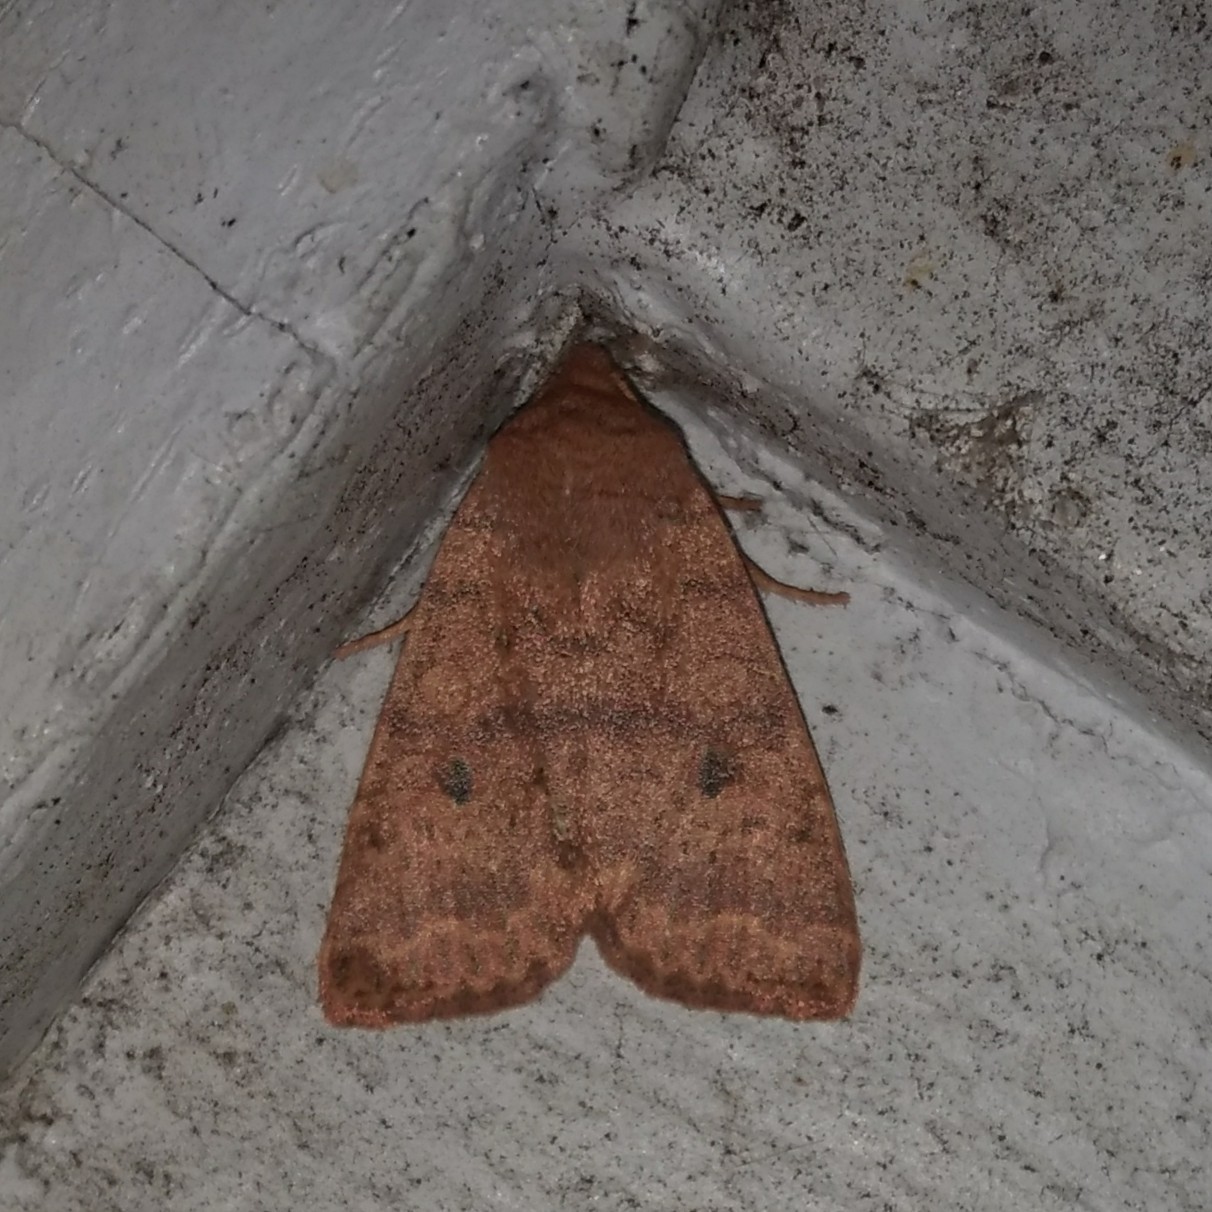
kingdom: Animalia
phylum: Arthropoda
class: Insecta
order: Lepidoptera
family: Noctuidae
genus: Agrochola
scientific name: Agrochola bicolorago
